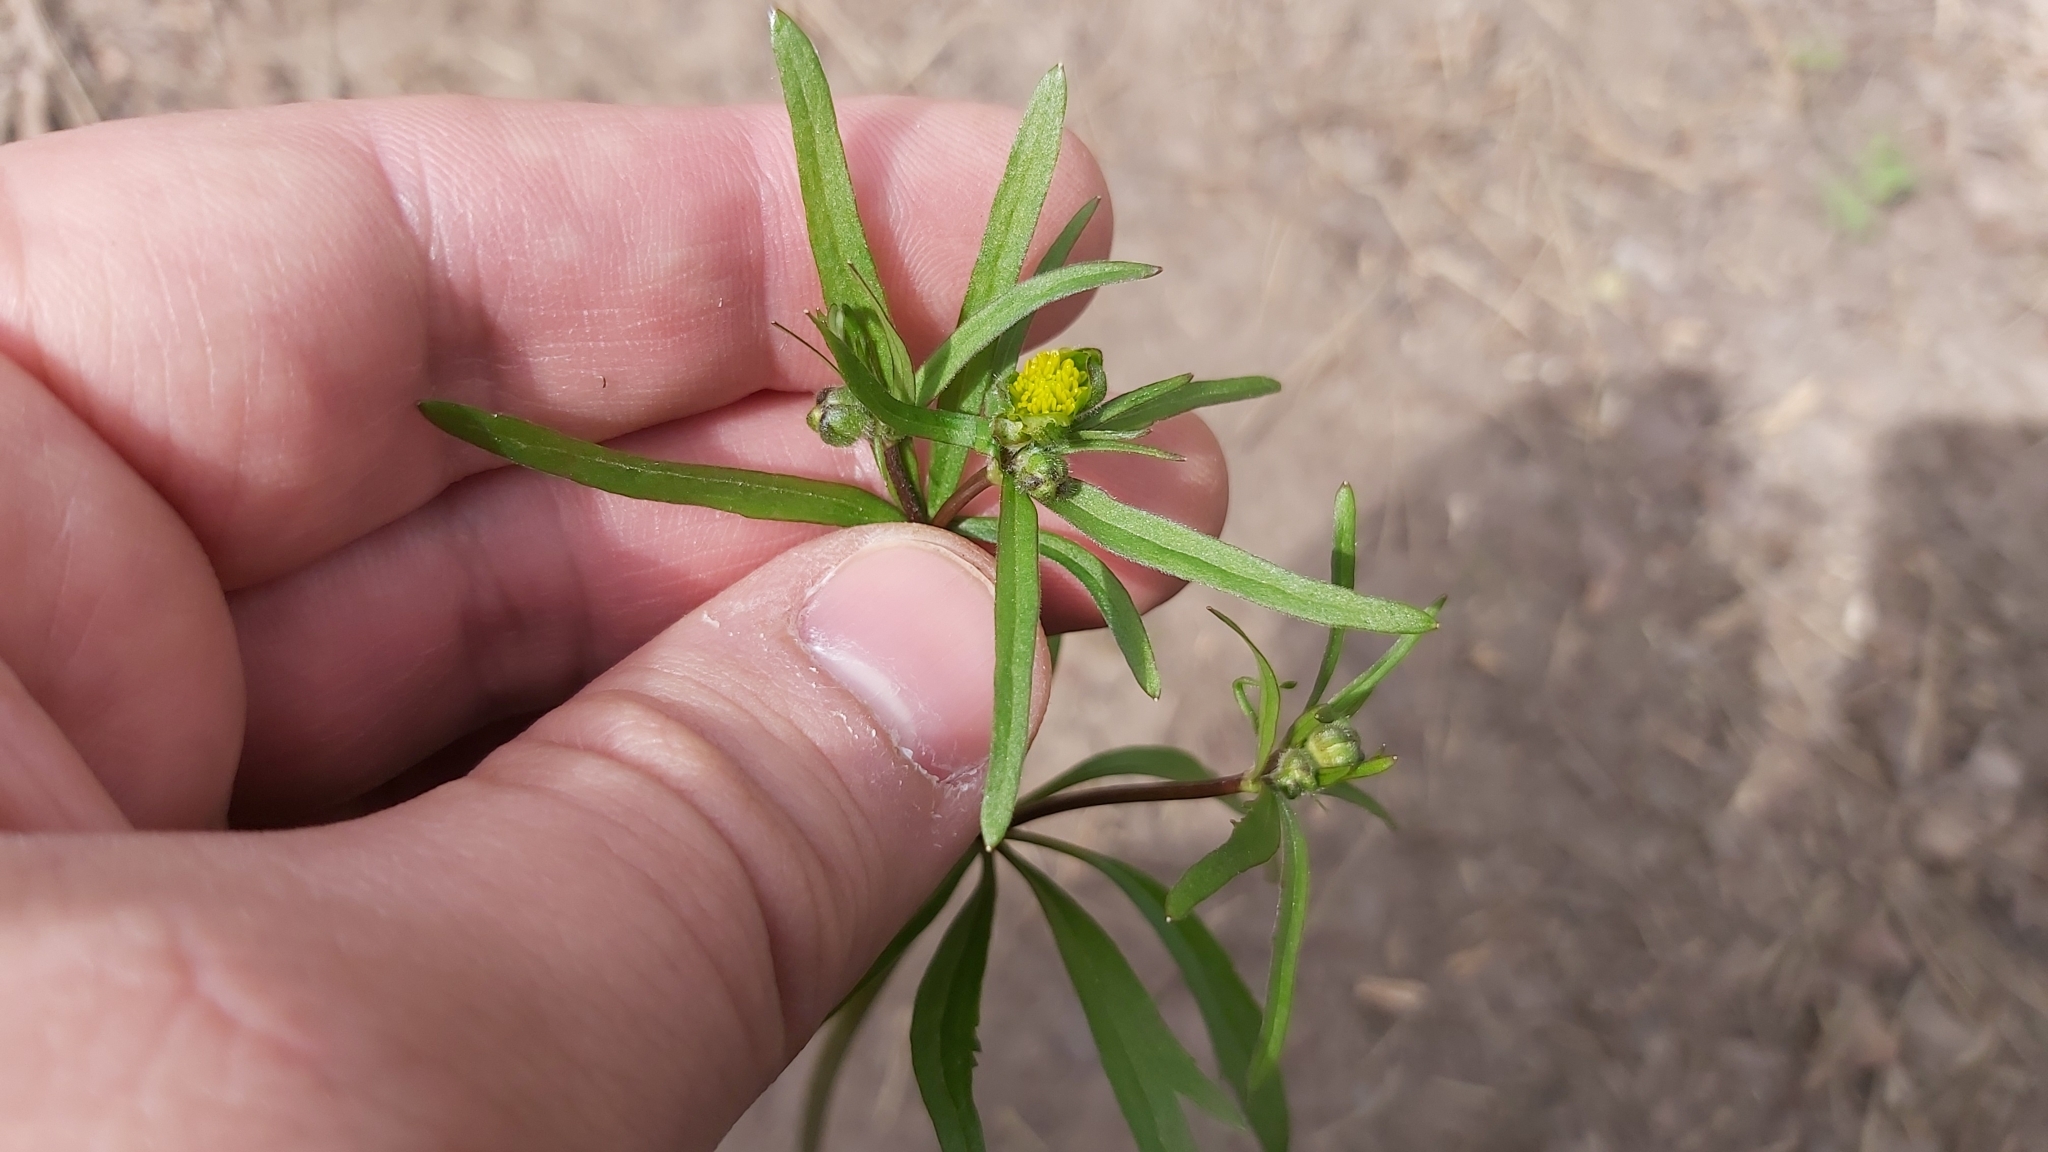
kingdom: Plantae
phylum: Tracheophyta
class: Magnoliopsida
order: Ranunculales
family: Ranunculaceae
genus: Ranunculus
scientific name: Ranunculus cassubicus
